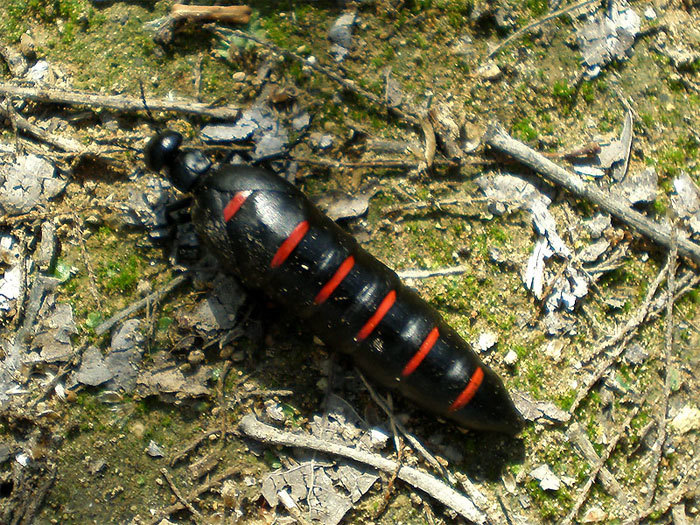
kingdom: Animalia
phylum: Arthropoda
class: Insecta
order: Coleoptera
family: Meloidae
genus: Berberomeloe
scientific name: Berberomeloe majalis
